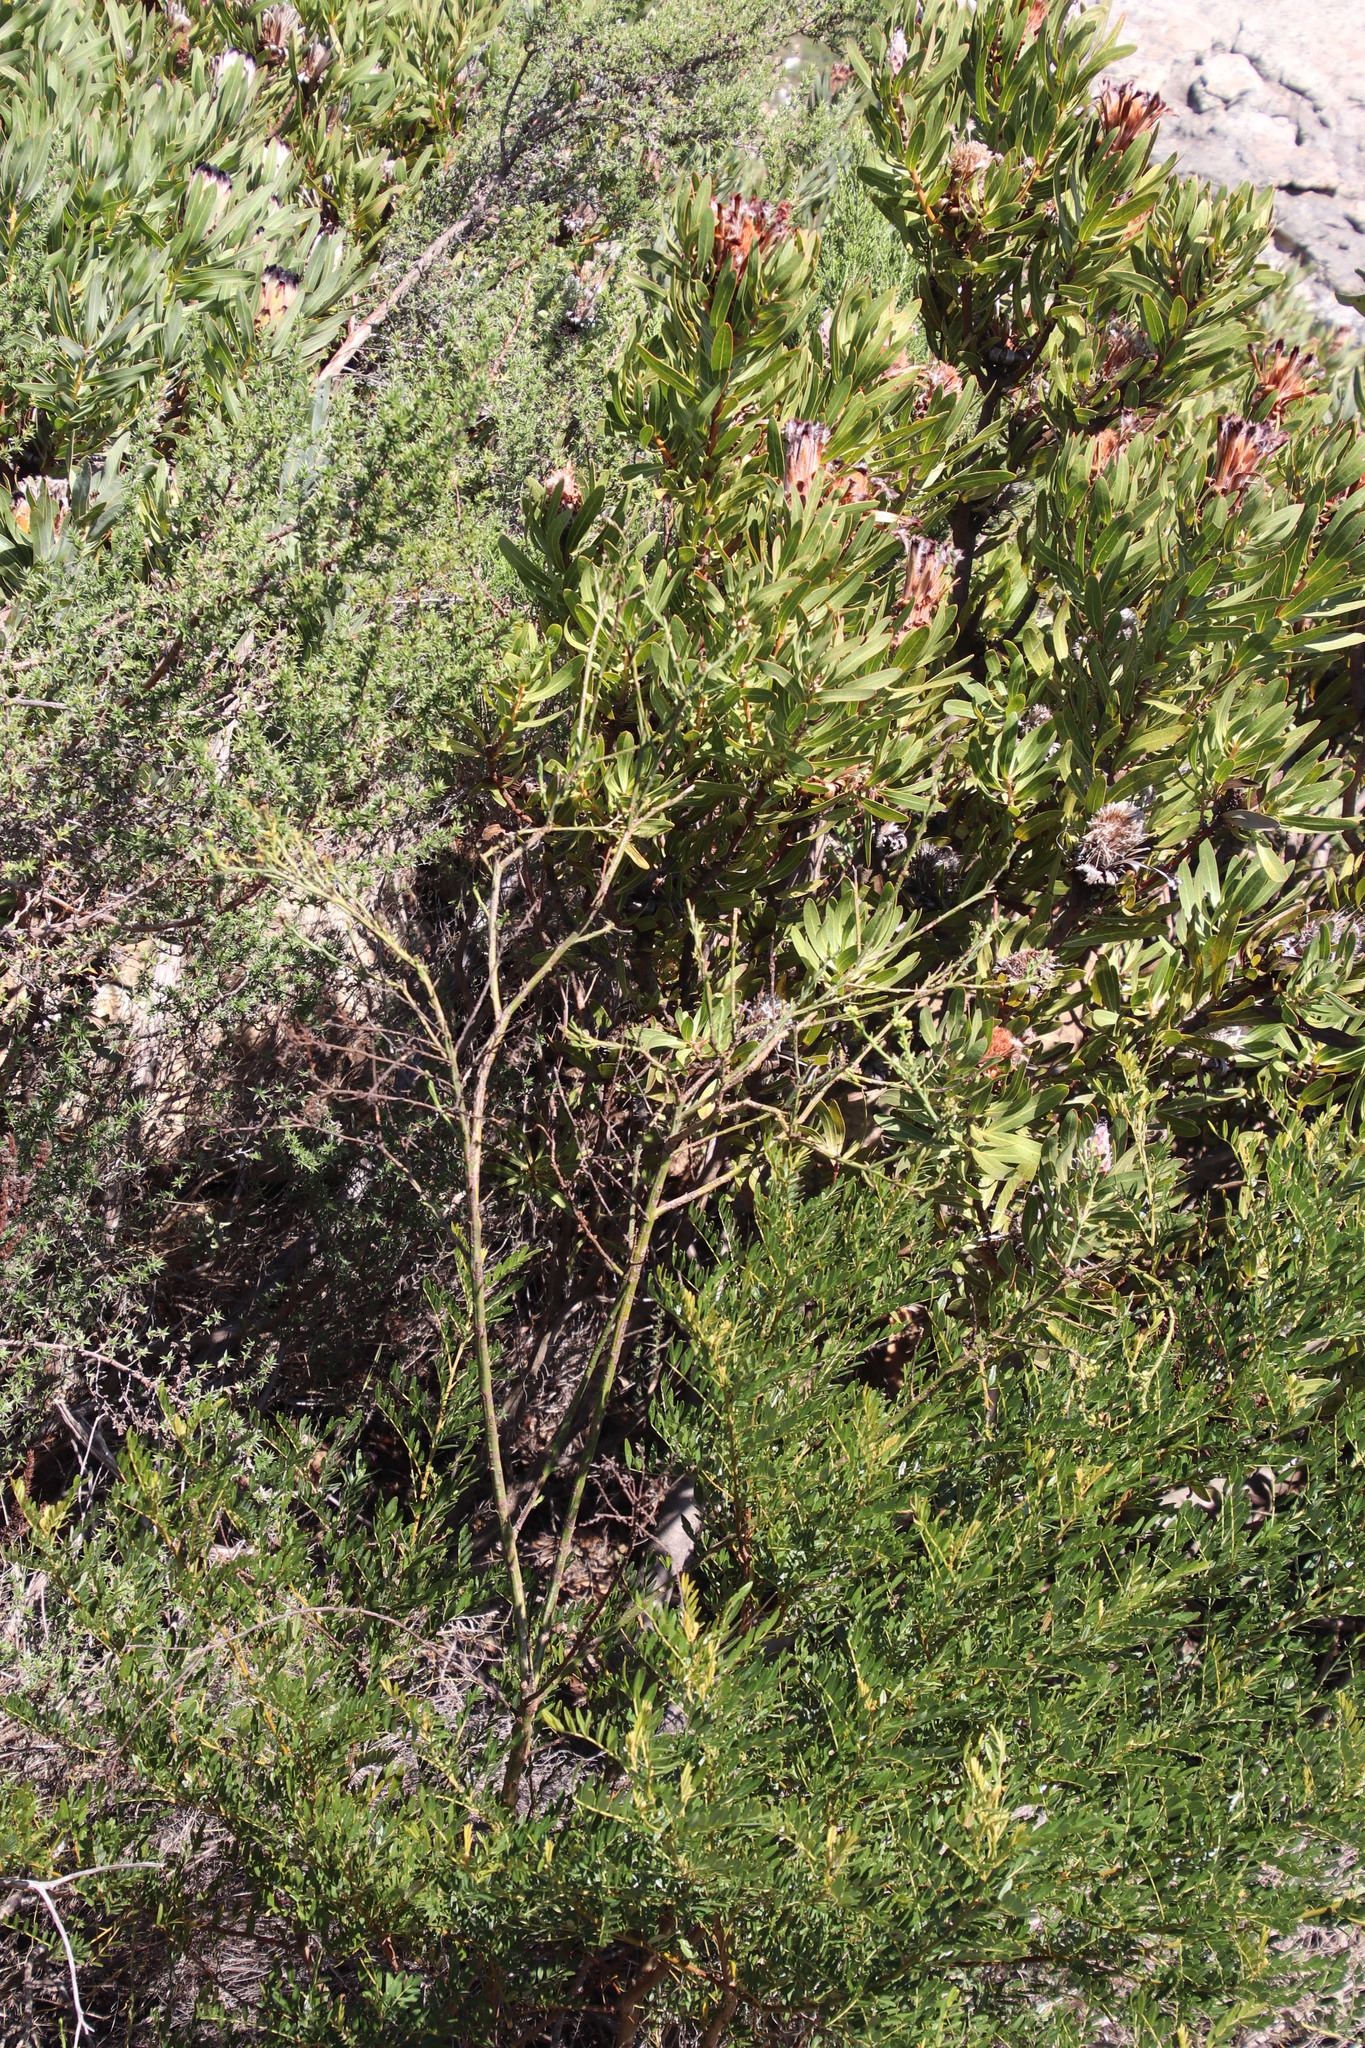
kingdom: Plantae
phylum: Tracheophyta
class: Magnoliopsida
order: Santalales
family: Thesiaceae
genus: Thesium
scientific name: Thesium strictum
